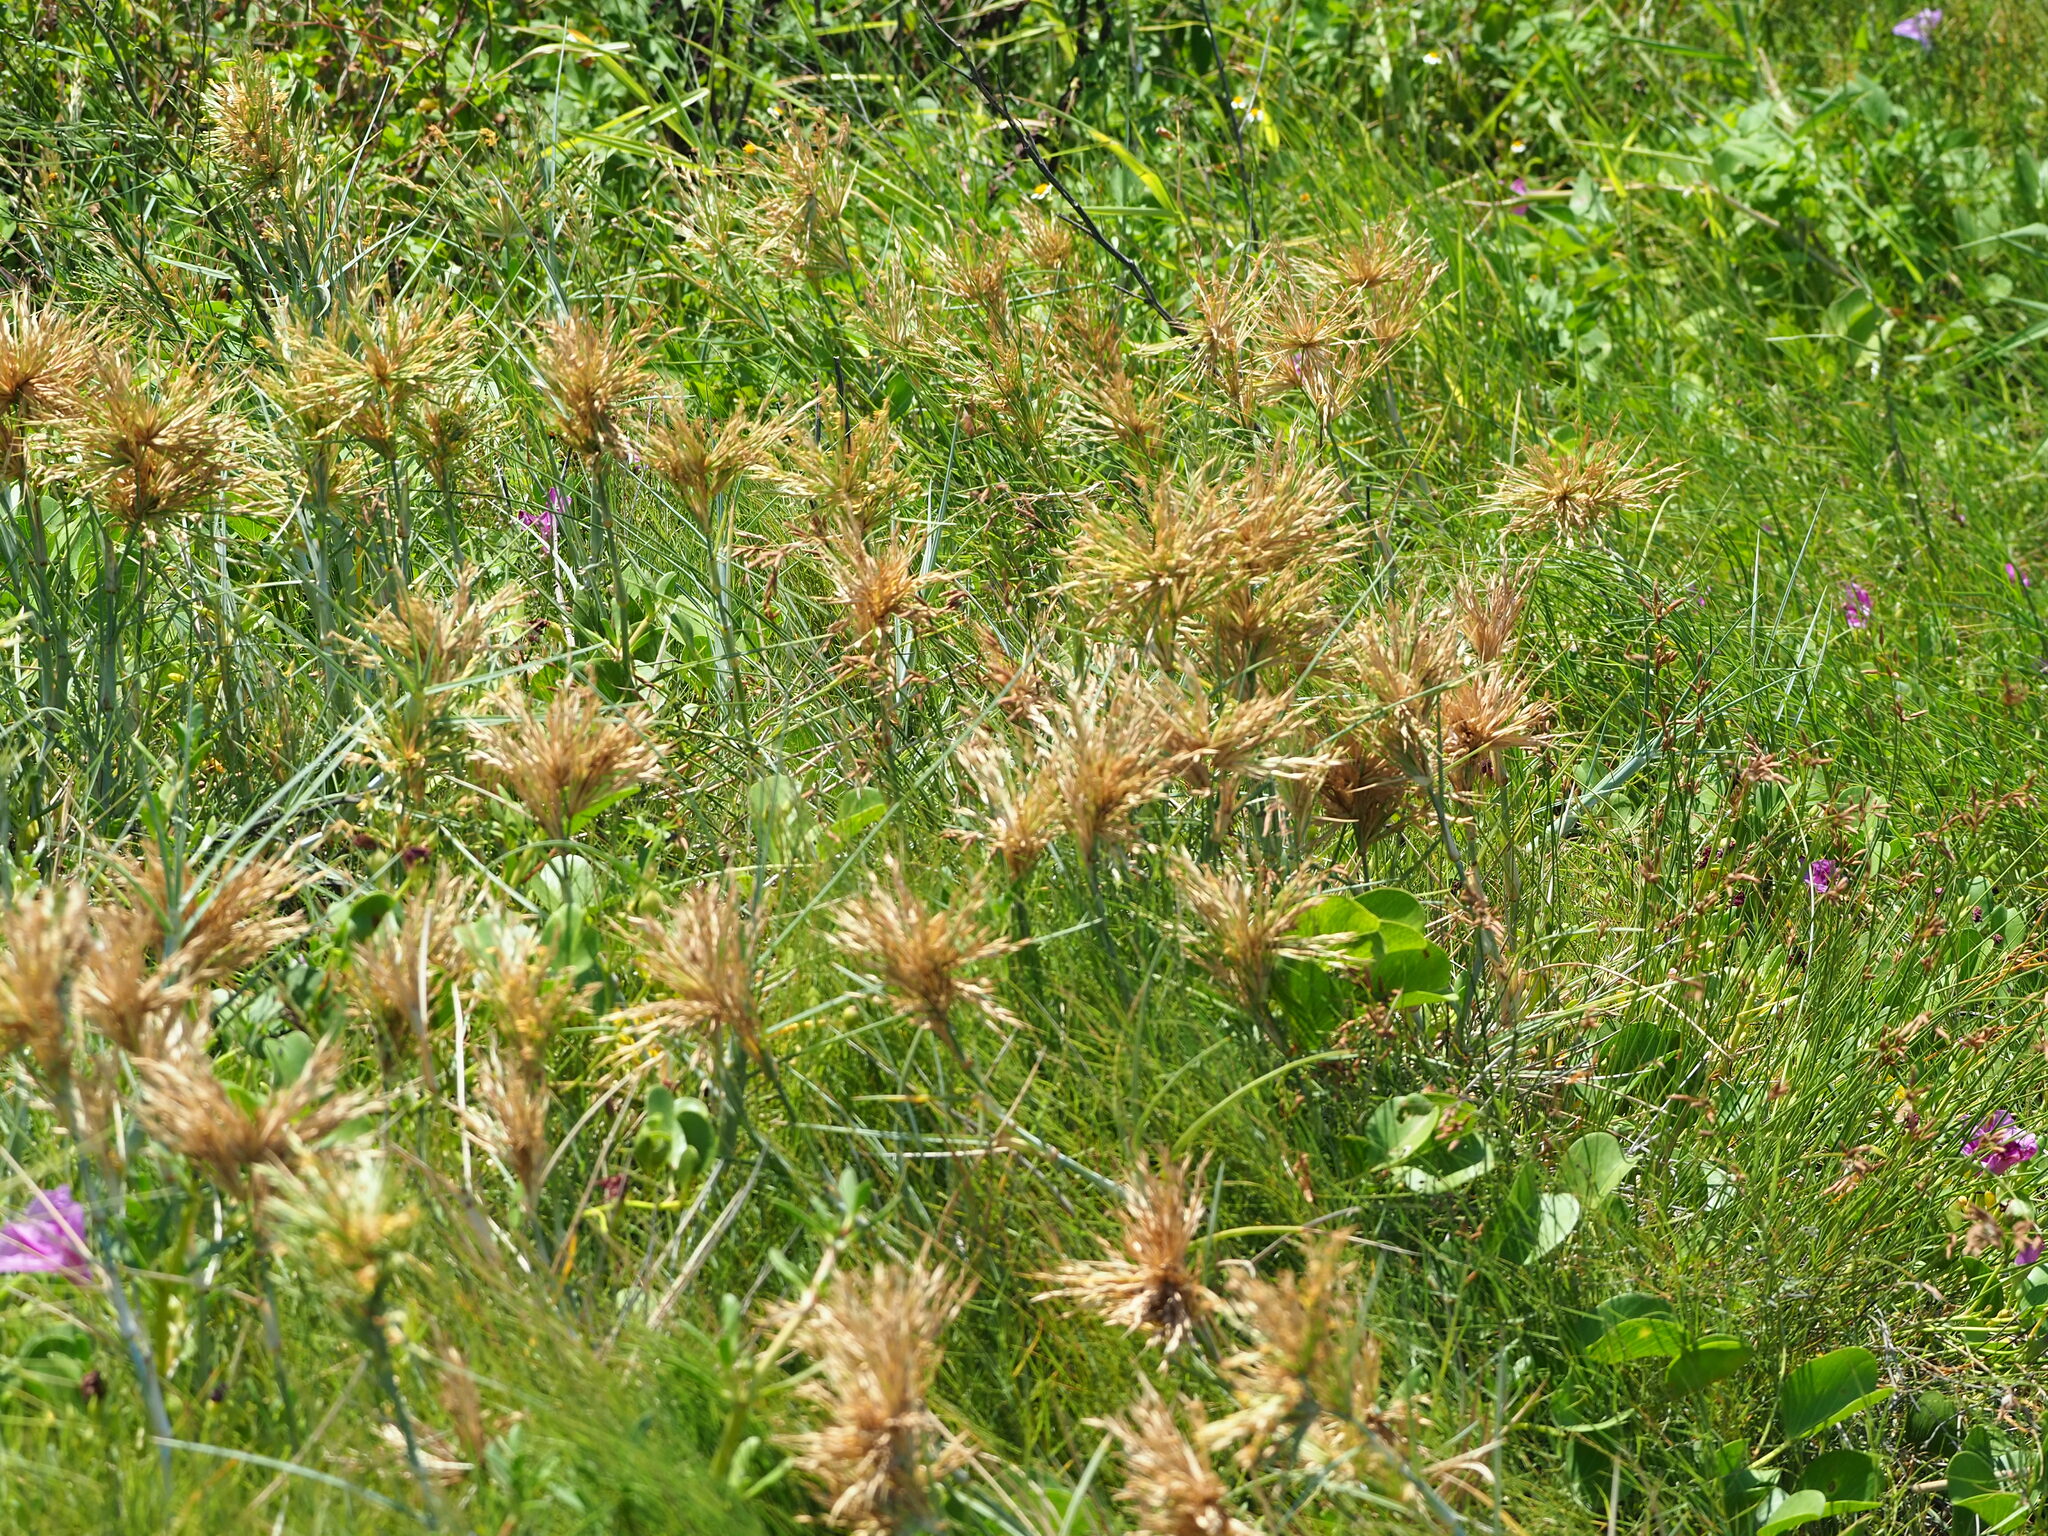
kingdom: Plantae
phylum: Tracheophyta
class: Liliopsida
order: Poales
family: Poaceae
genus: Spinifex
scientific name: Spinifex littoreus
